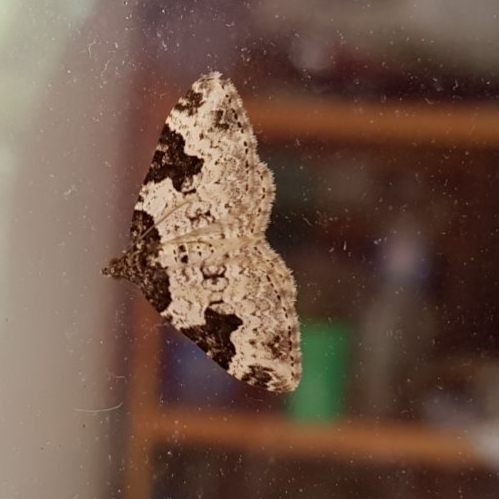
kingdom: Animalia
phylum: Arthropoda
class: Insecta
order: Lepidoptera
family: Geometridae
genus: Xanthorhoe
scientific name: Xanthorhoe fluctuata
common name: Garden carpet
